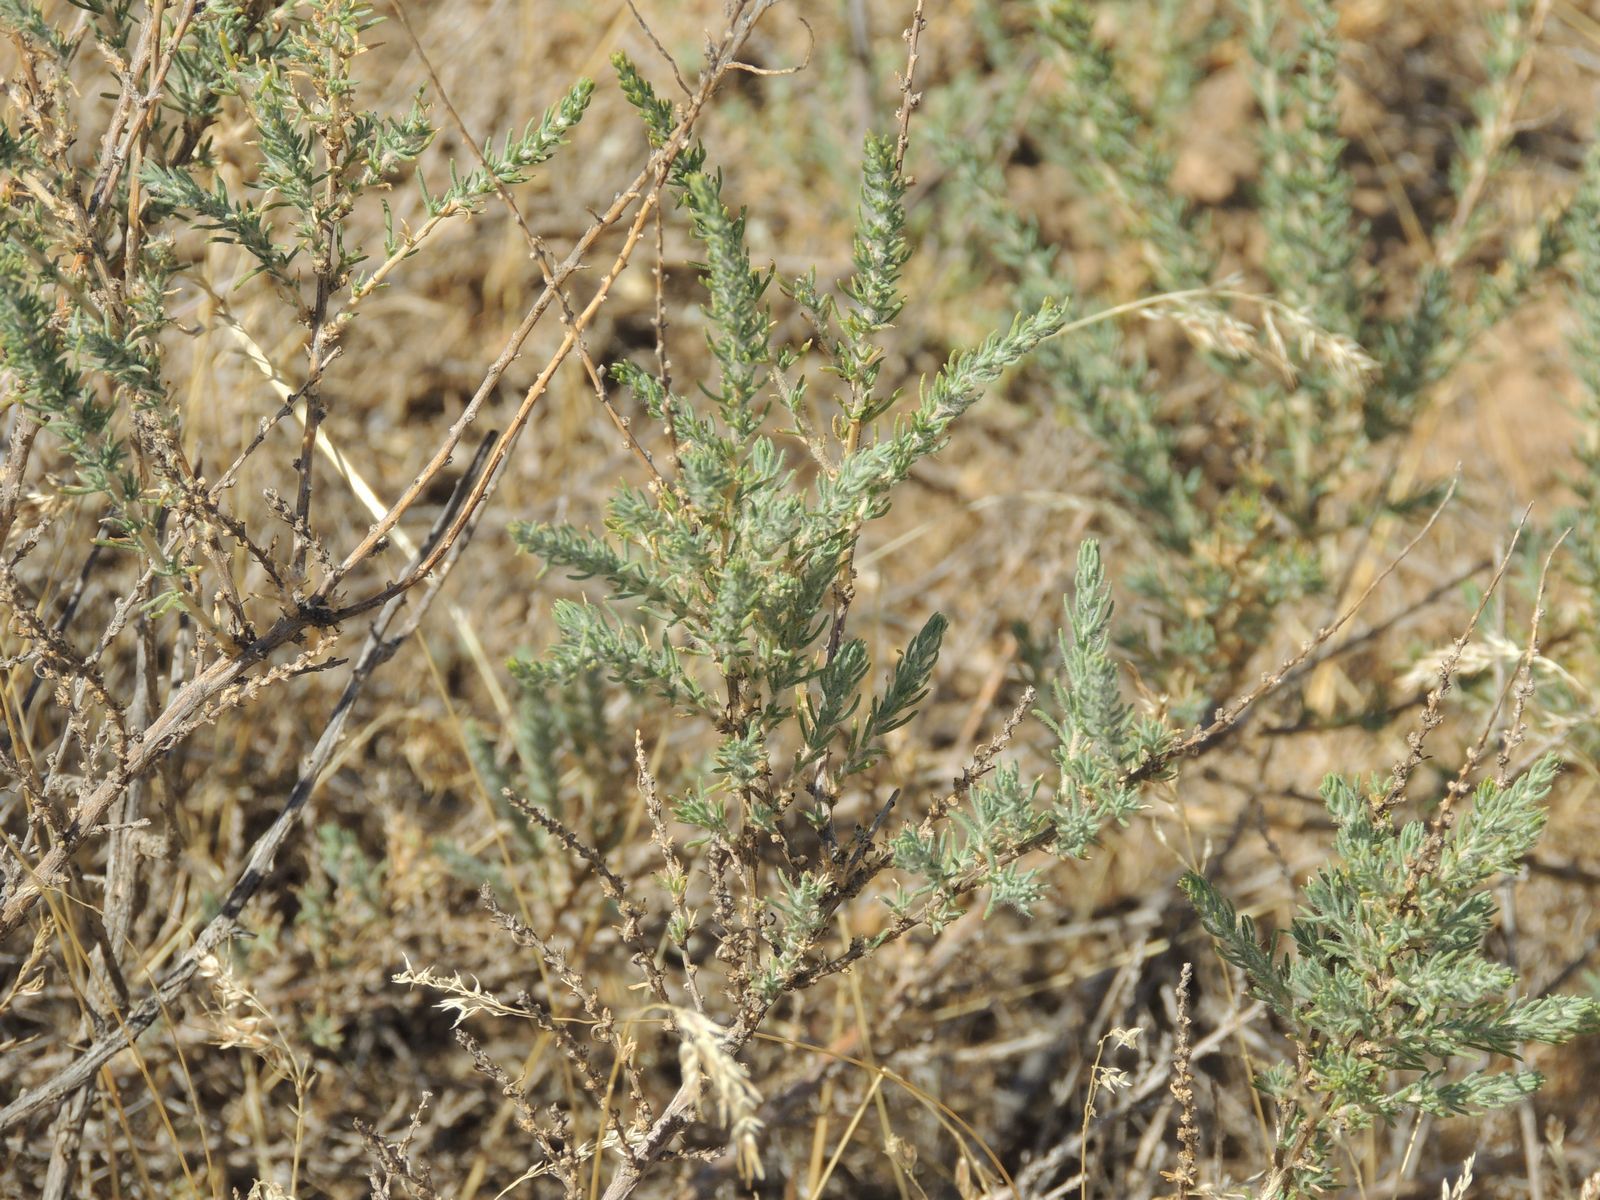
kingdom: Plantae
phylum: Tracheophyta
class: Magnoliopsida
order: Caryophyllales
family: Amaranthaceae
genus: Nitrosalsola
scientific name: Nitrosalsola laricina
